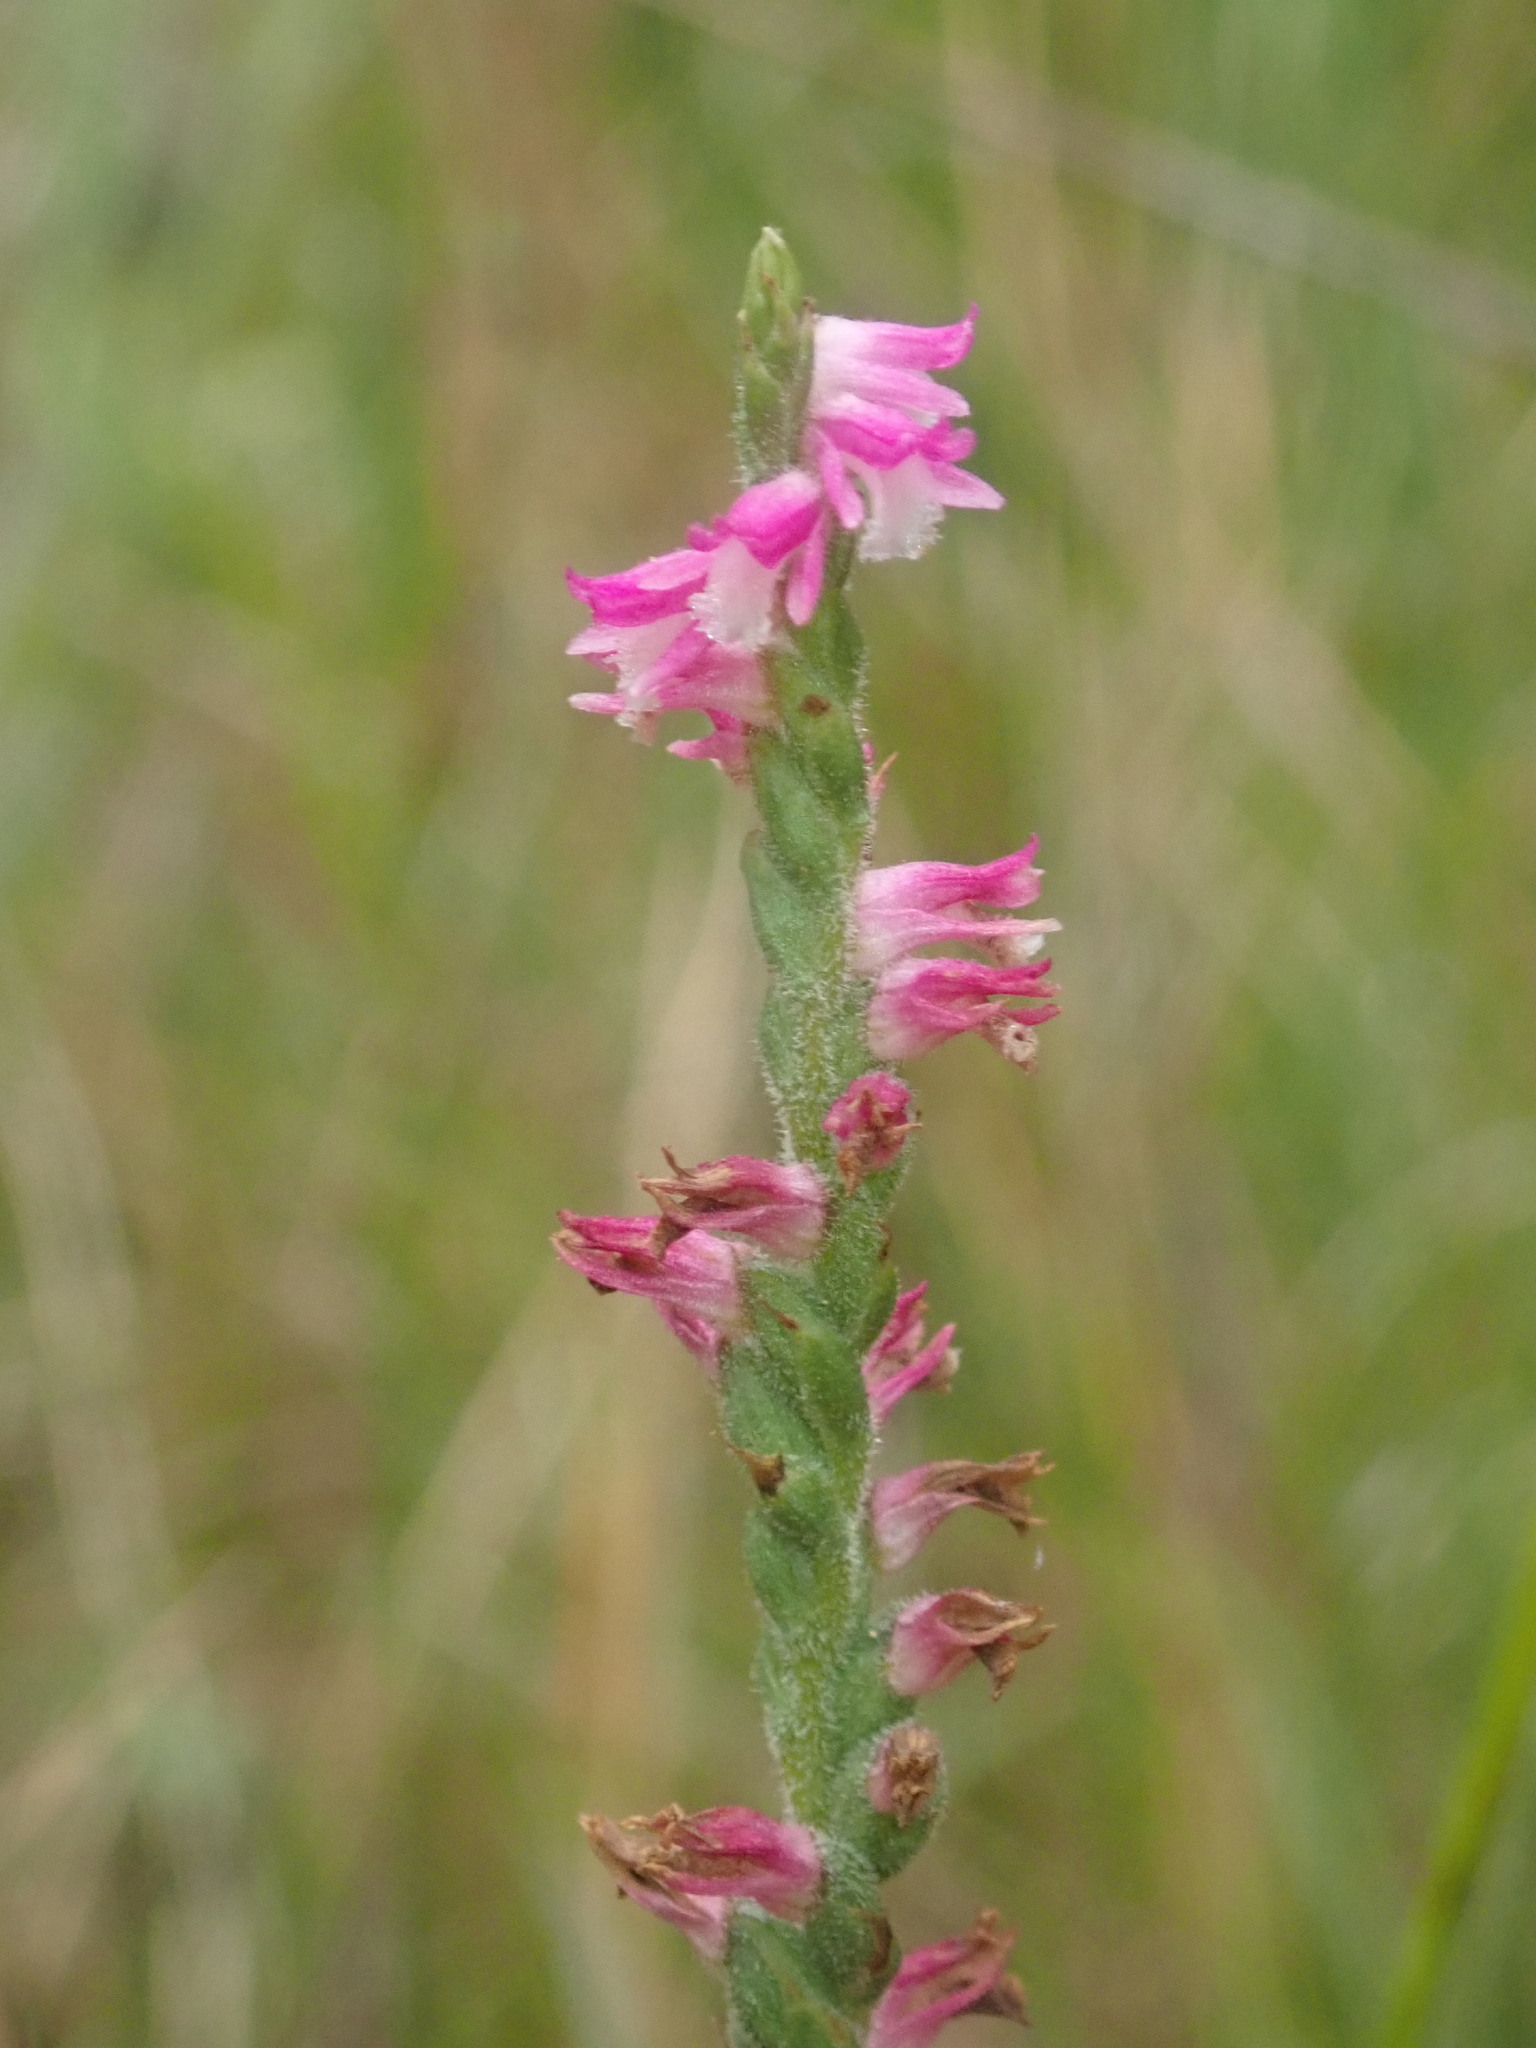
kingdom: Plantae
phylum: Tracheophyta
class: Liliopsida
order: Asparagales
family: Orchidaceae
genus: Spiranthes
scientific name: Spiranthes australis
